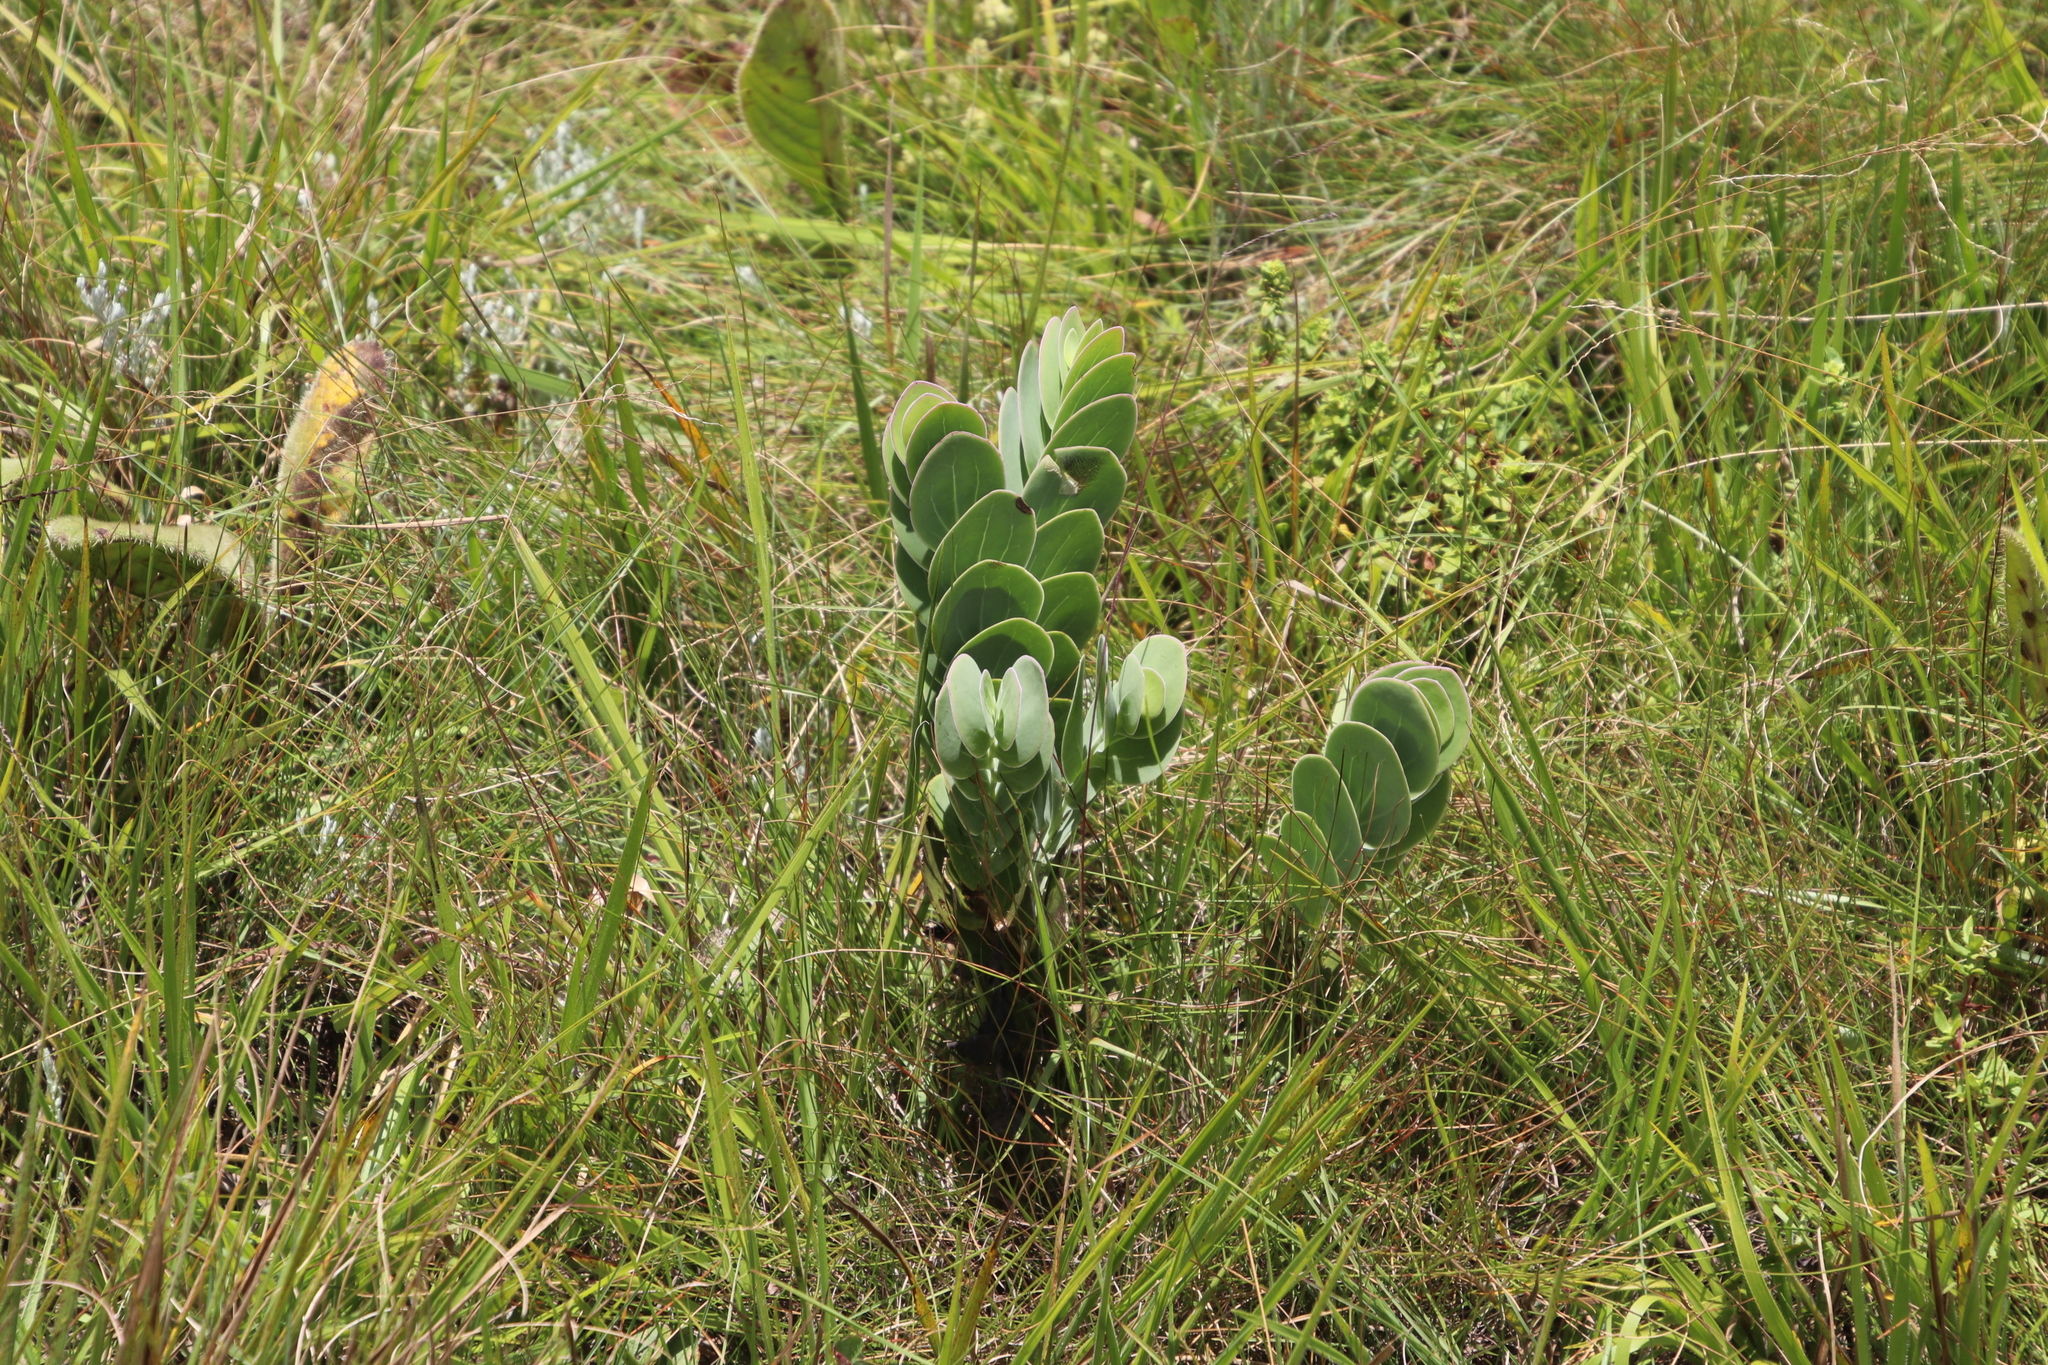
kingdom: Plantae
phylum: Tracheophyta
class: Magnoliopsida
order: Asterales
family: Asteraceae
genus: Lopholaena
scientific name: Lopholaena disticha
